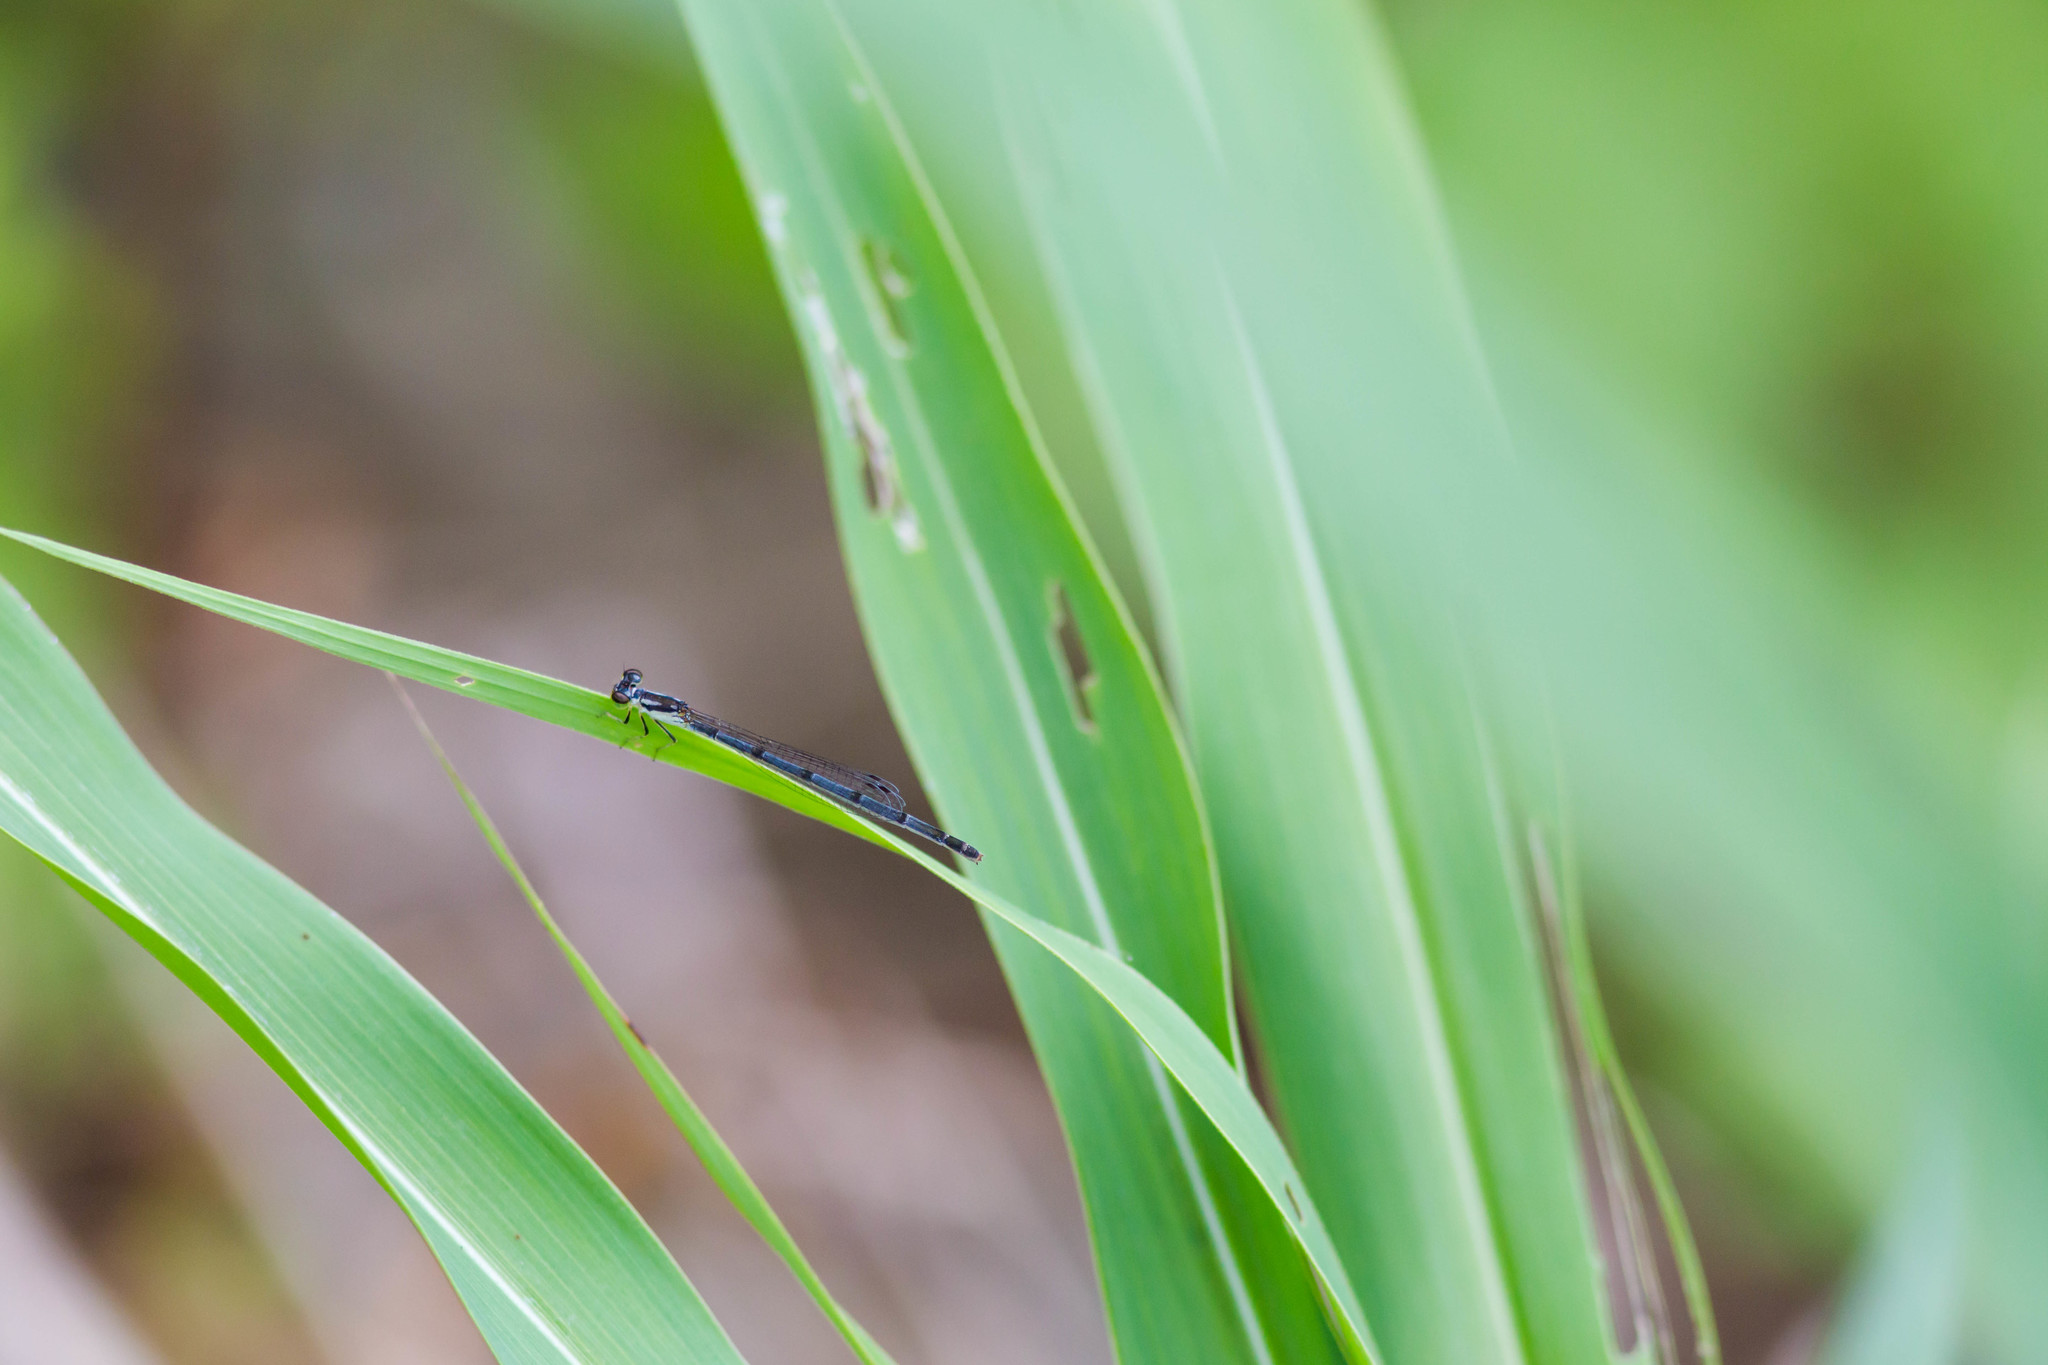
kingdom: Animalia
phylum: Arthropoda
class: Insecta
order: Odonata
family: Coenagrionidae
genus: Ischnura
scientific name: Ischnura posita
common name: Fragile forktail
